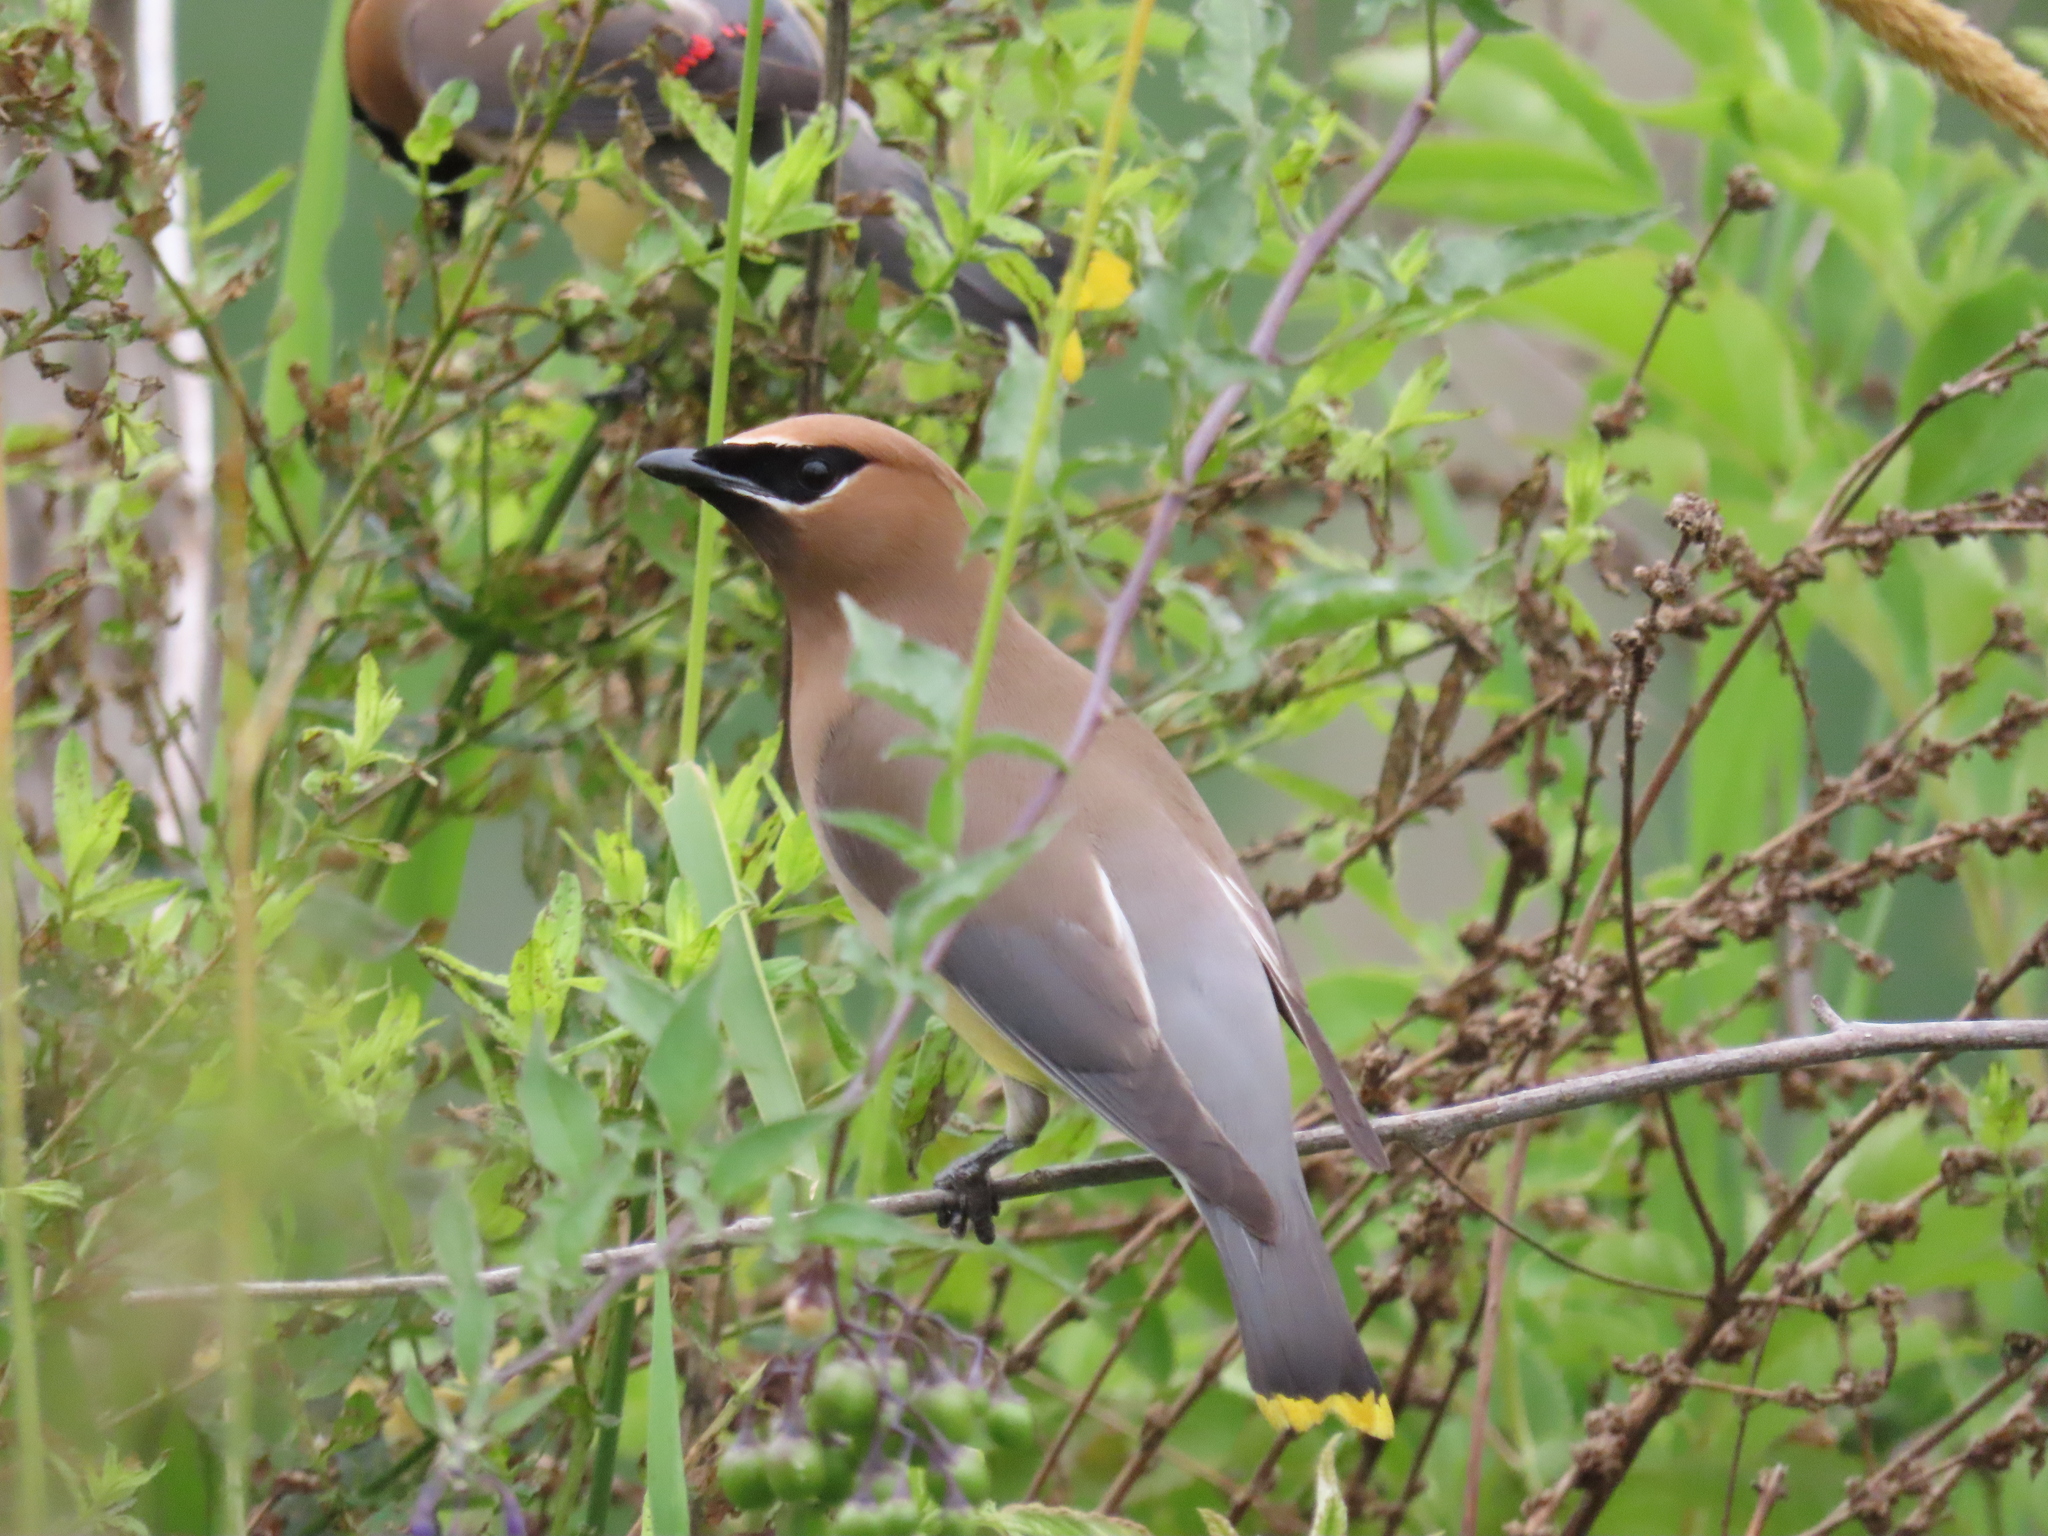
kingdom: Animalia
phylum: Chordata
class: Aves
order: Passeriformes
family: Bombycillidae
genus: Bombycilla
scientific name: Bombycilla cedrorum
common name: Cedar waxwing
